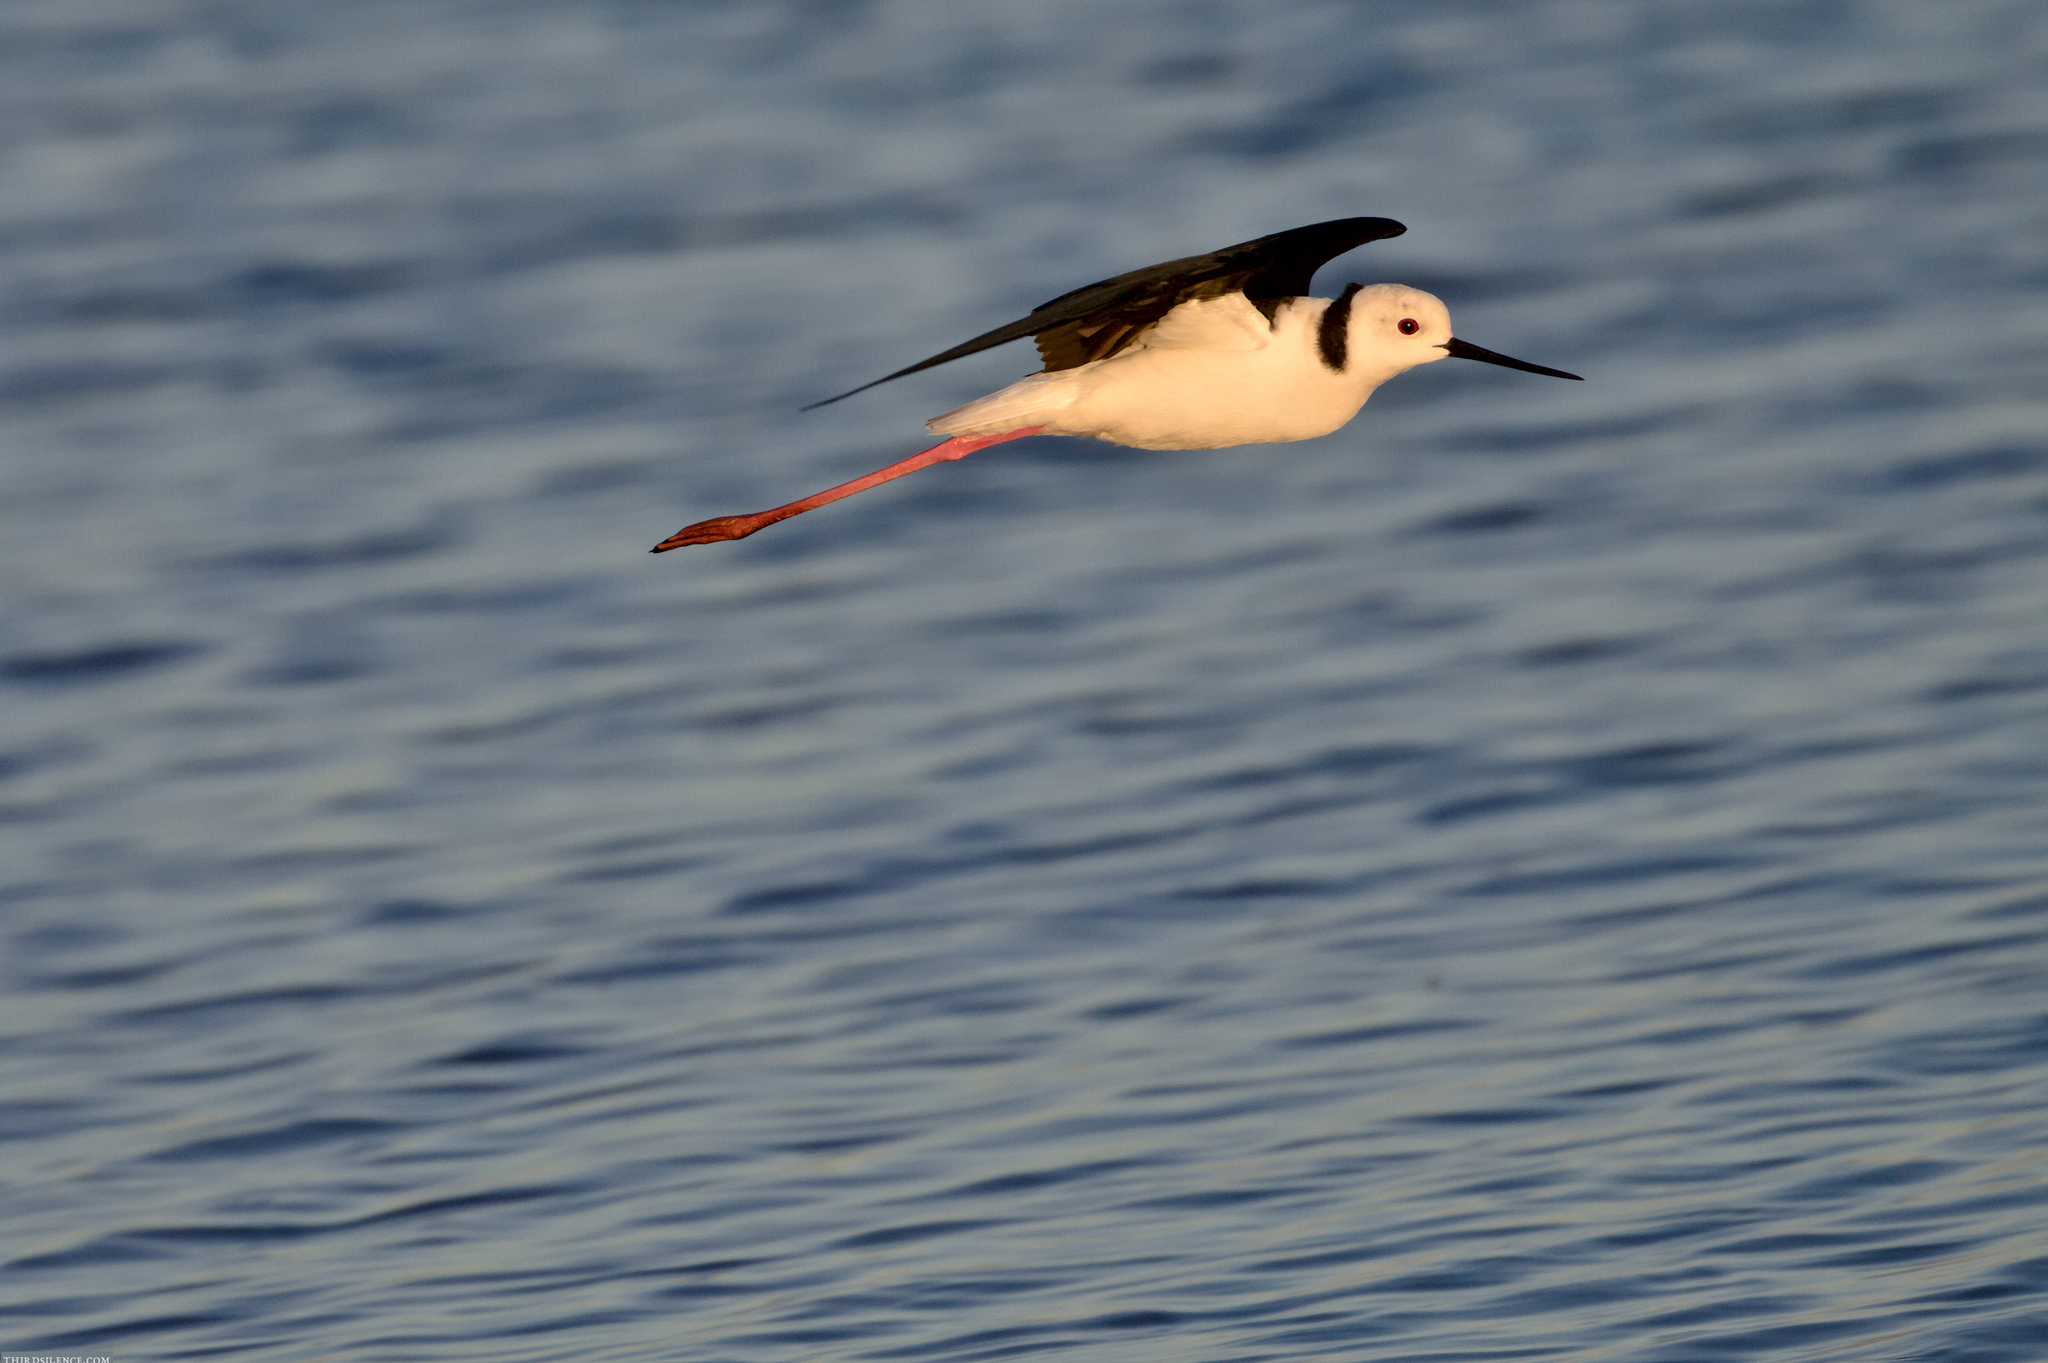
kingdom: Animalia
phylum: Chordata
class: Aves
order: Charadriiformes
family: Recurvirostridae
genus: Himantopus
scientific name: Himantopus leucocephalus
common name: White-headed stilt
